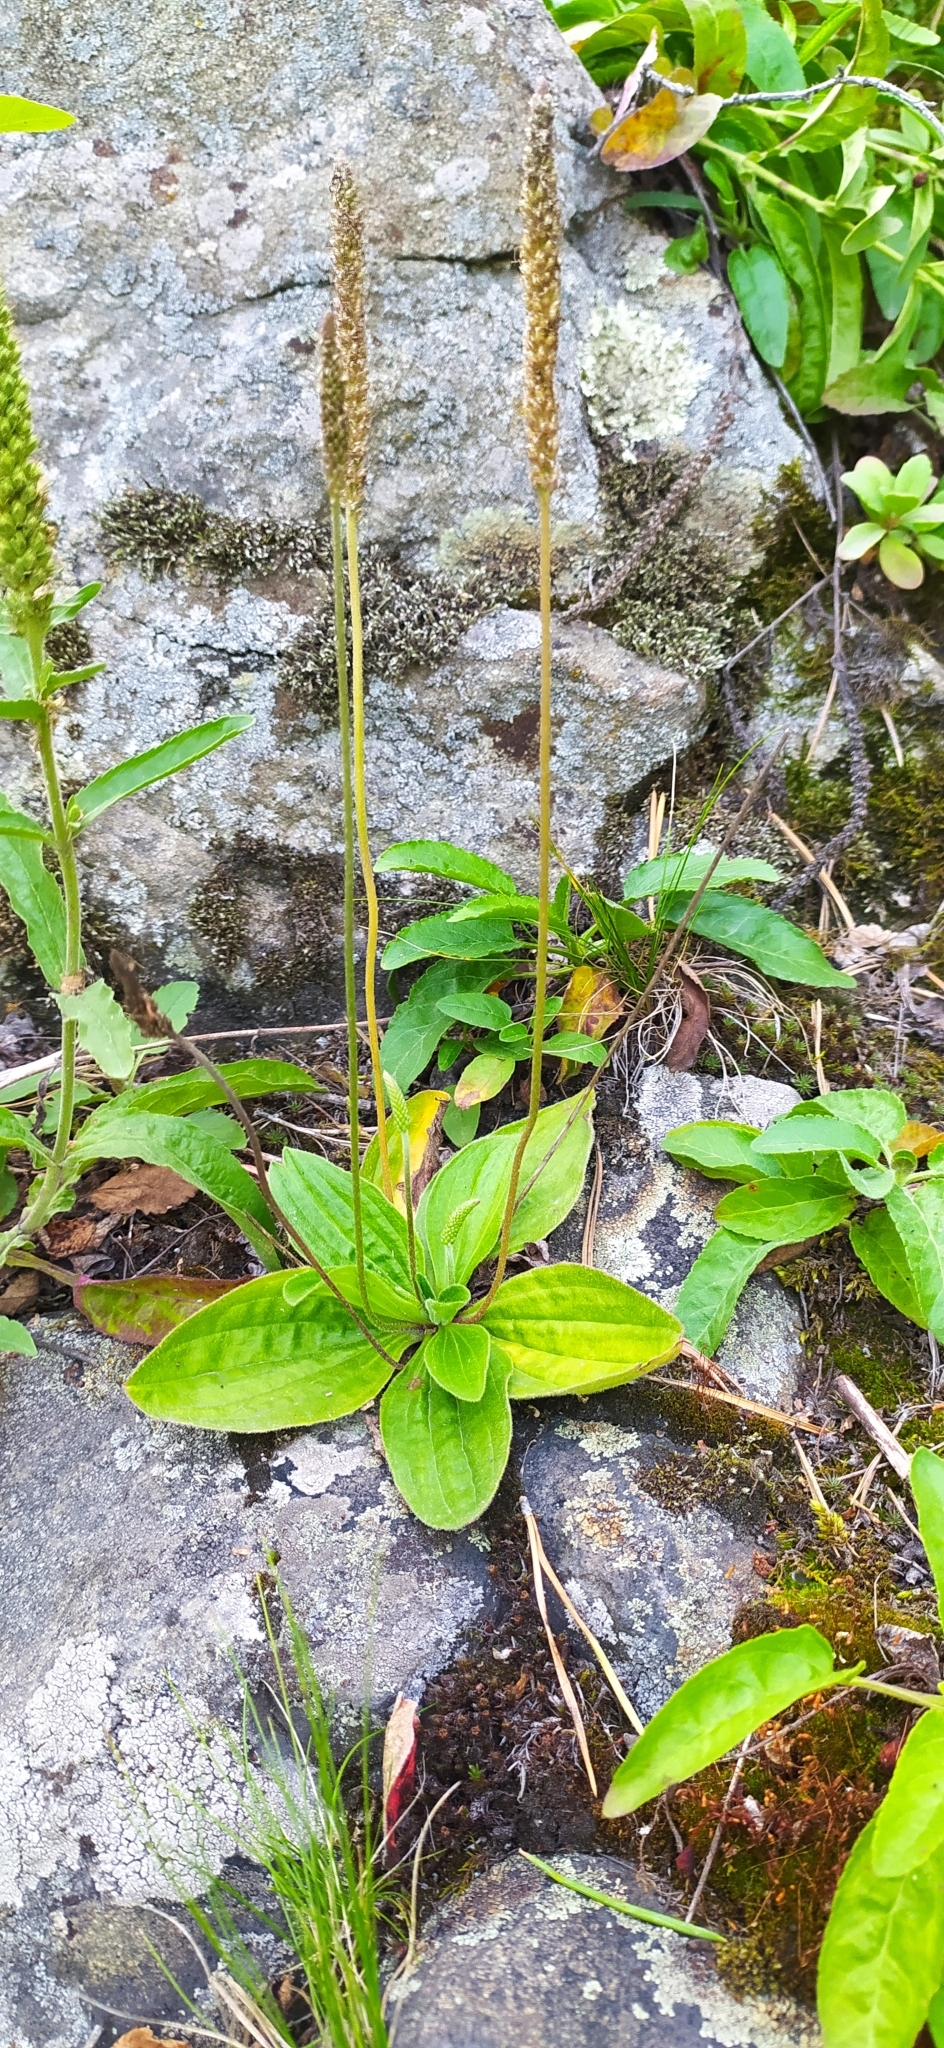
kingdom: Plantae
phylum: Tracheophyta
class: Magnoliopsida
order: Lamiales
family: Plantaginaceae
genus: Plantago
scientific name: Plantago major
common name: Common plantain
